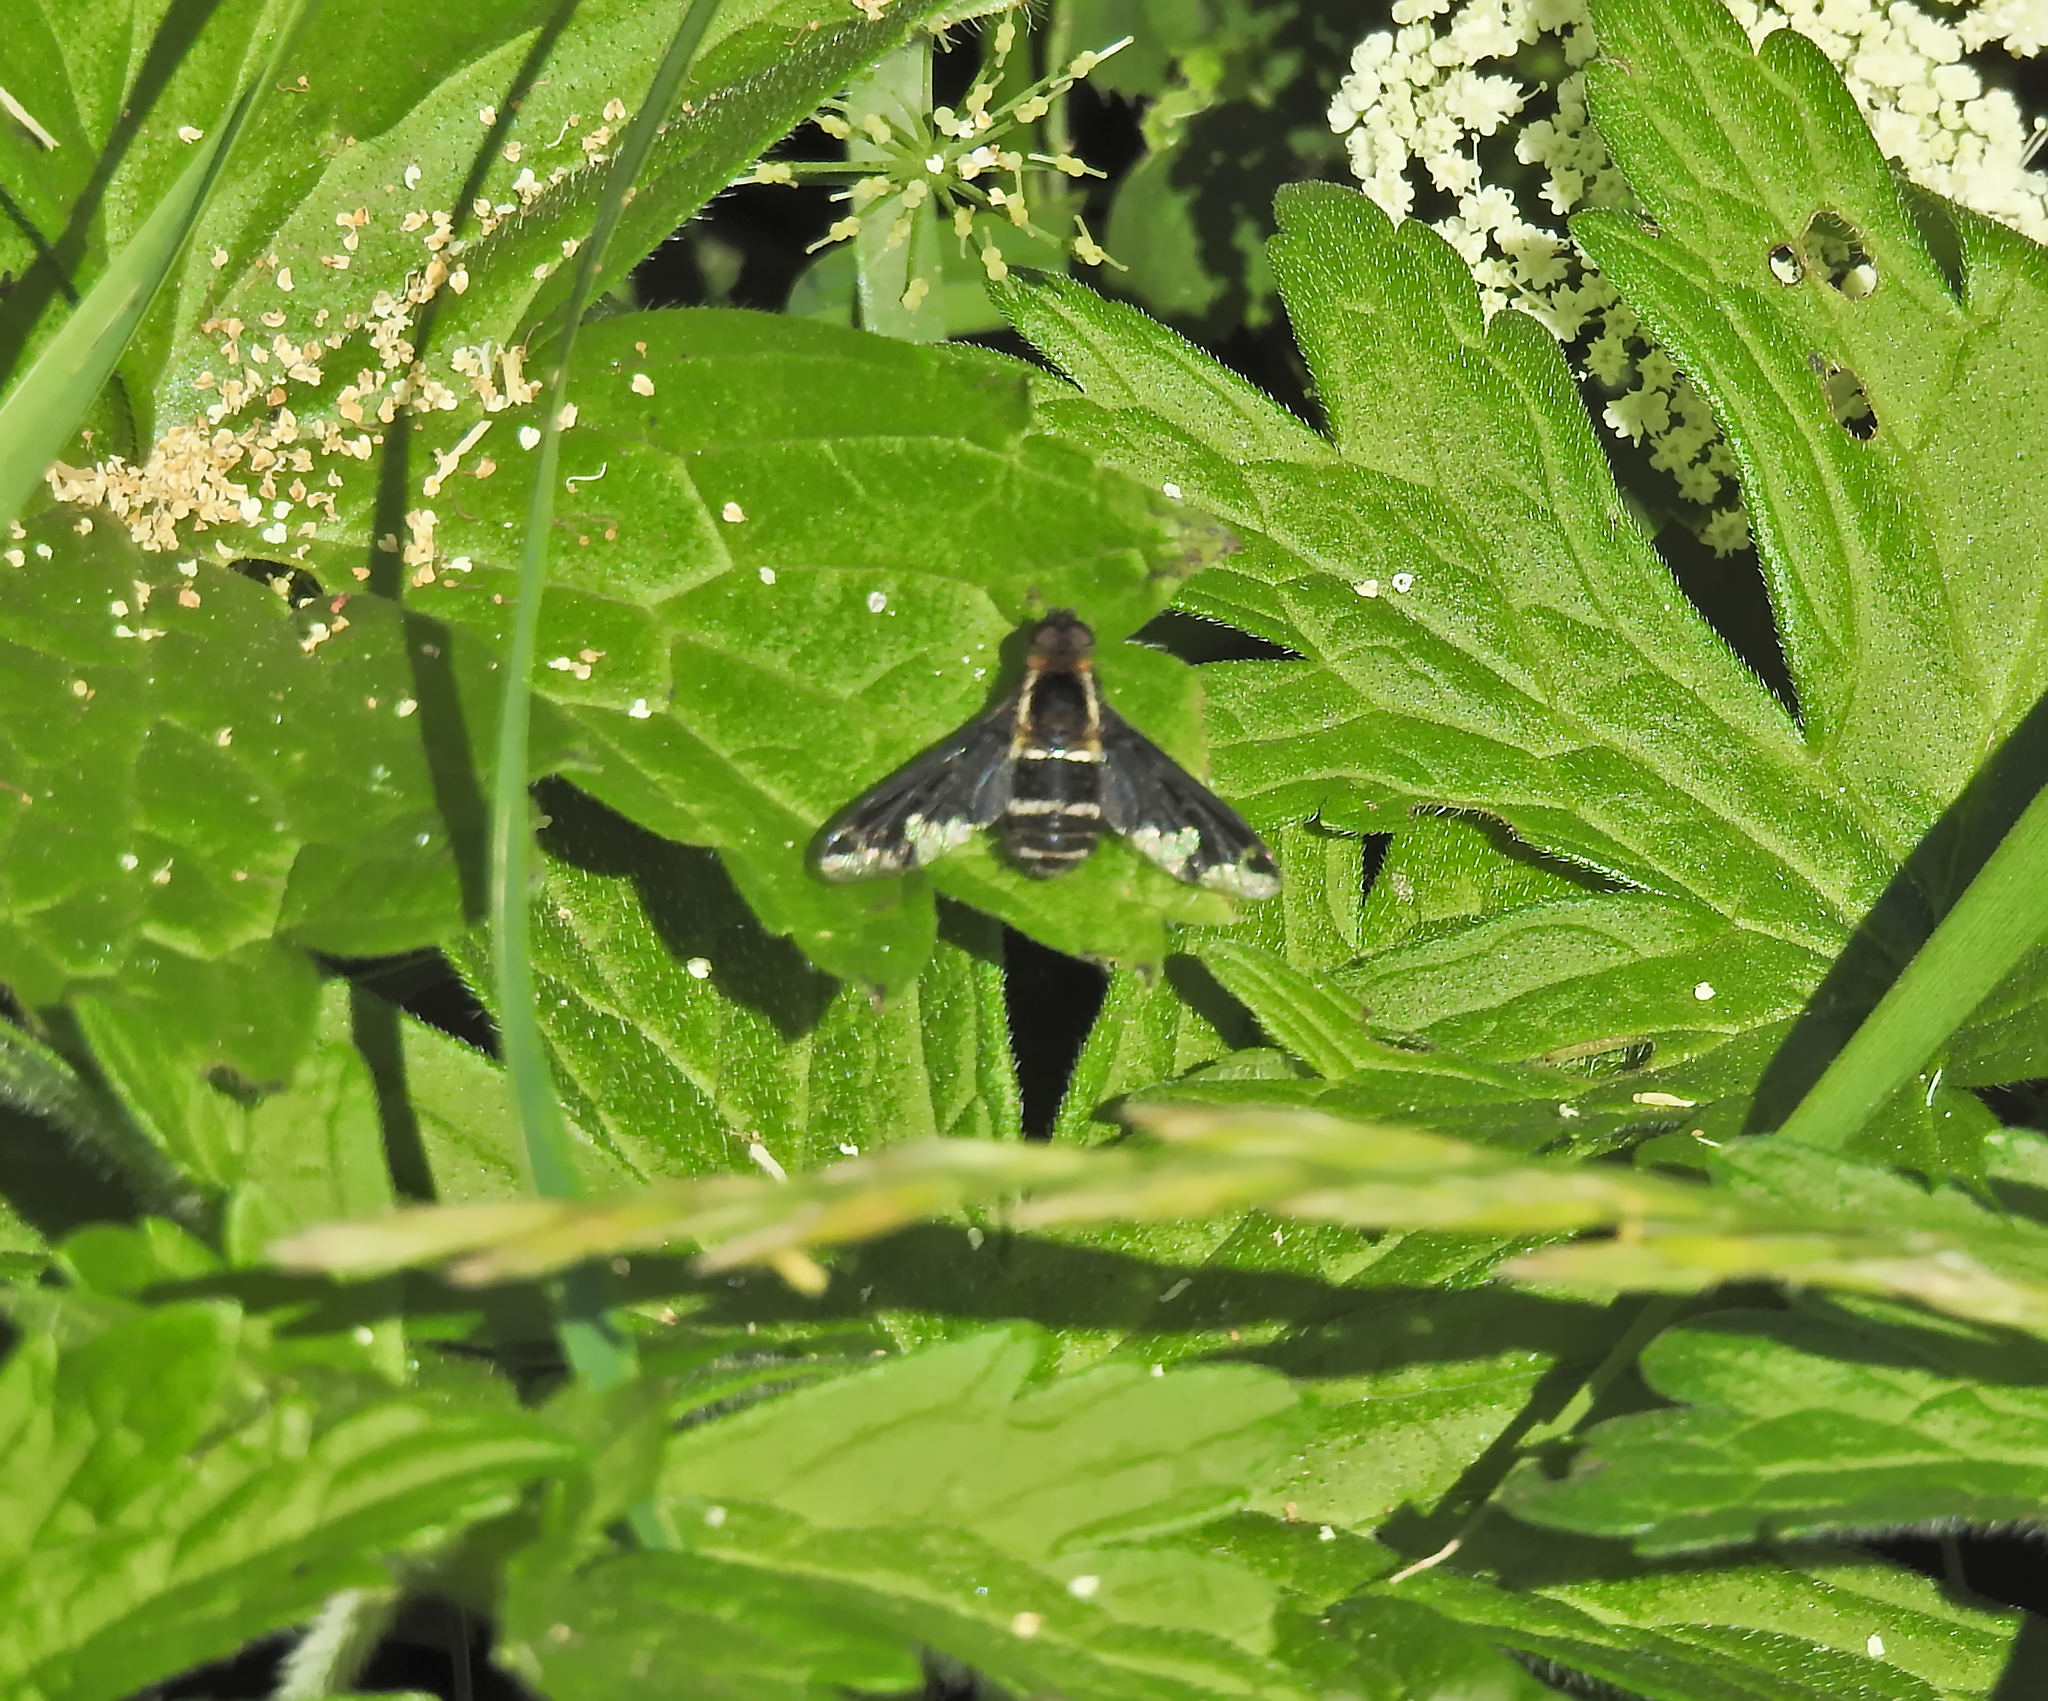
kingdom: Animalia
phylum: Arthropoda
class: Insecta
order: Diptera
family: Bombyliidae
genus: Hemipenthes
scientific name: Hemipenthes maura
